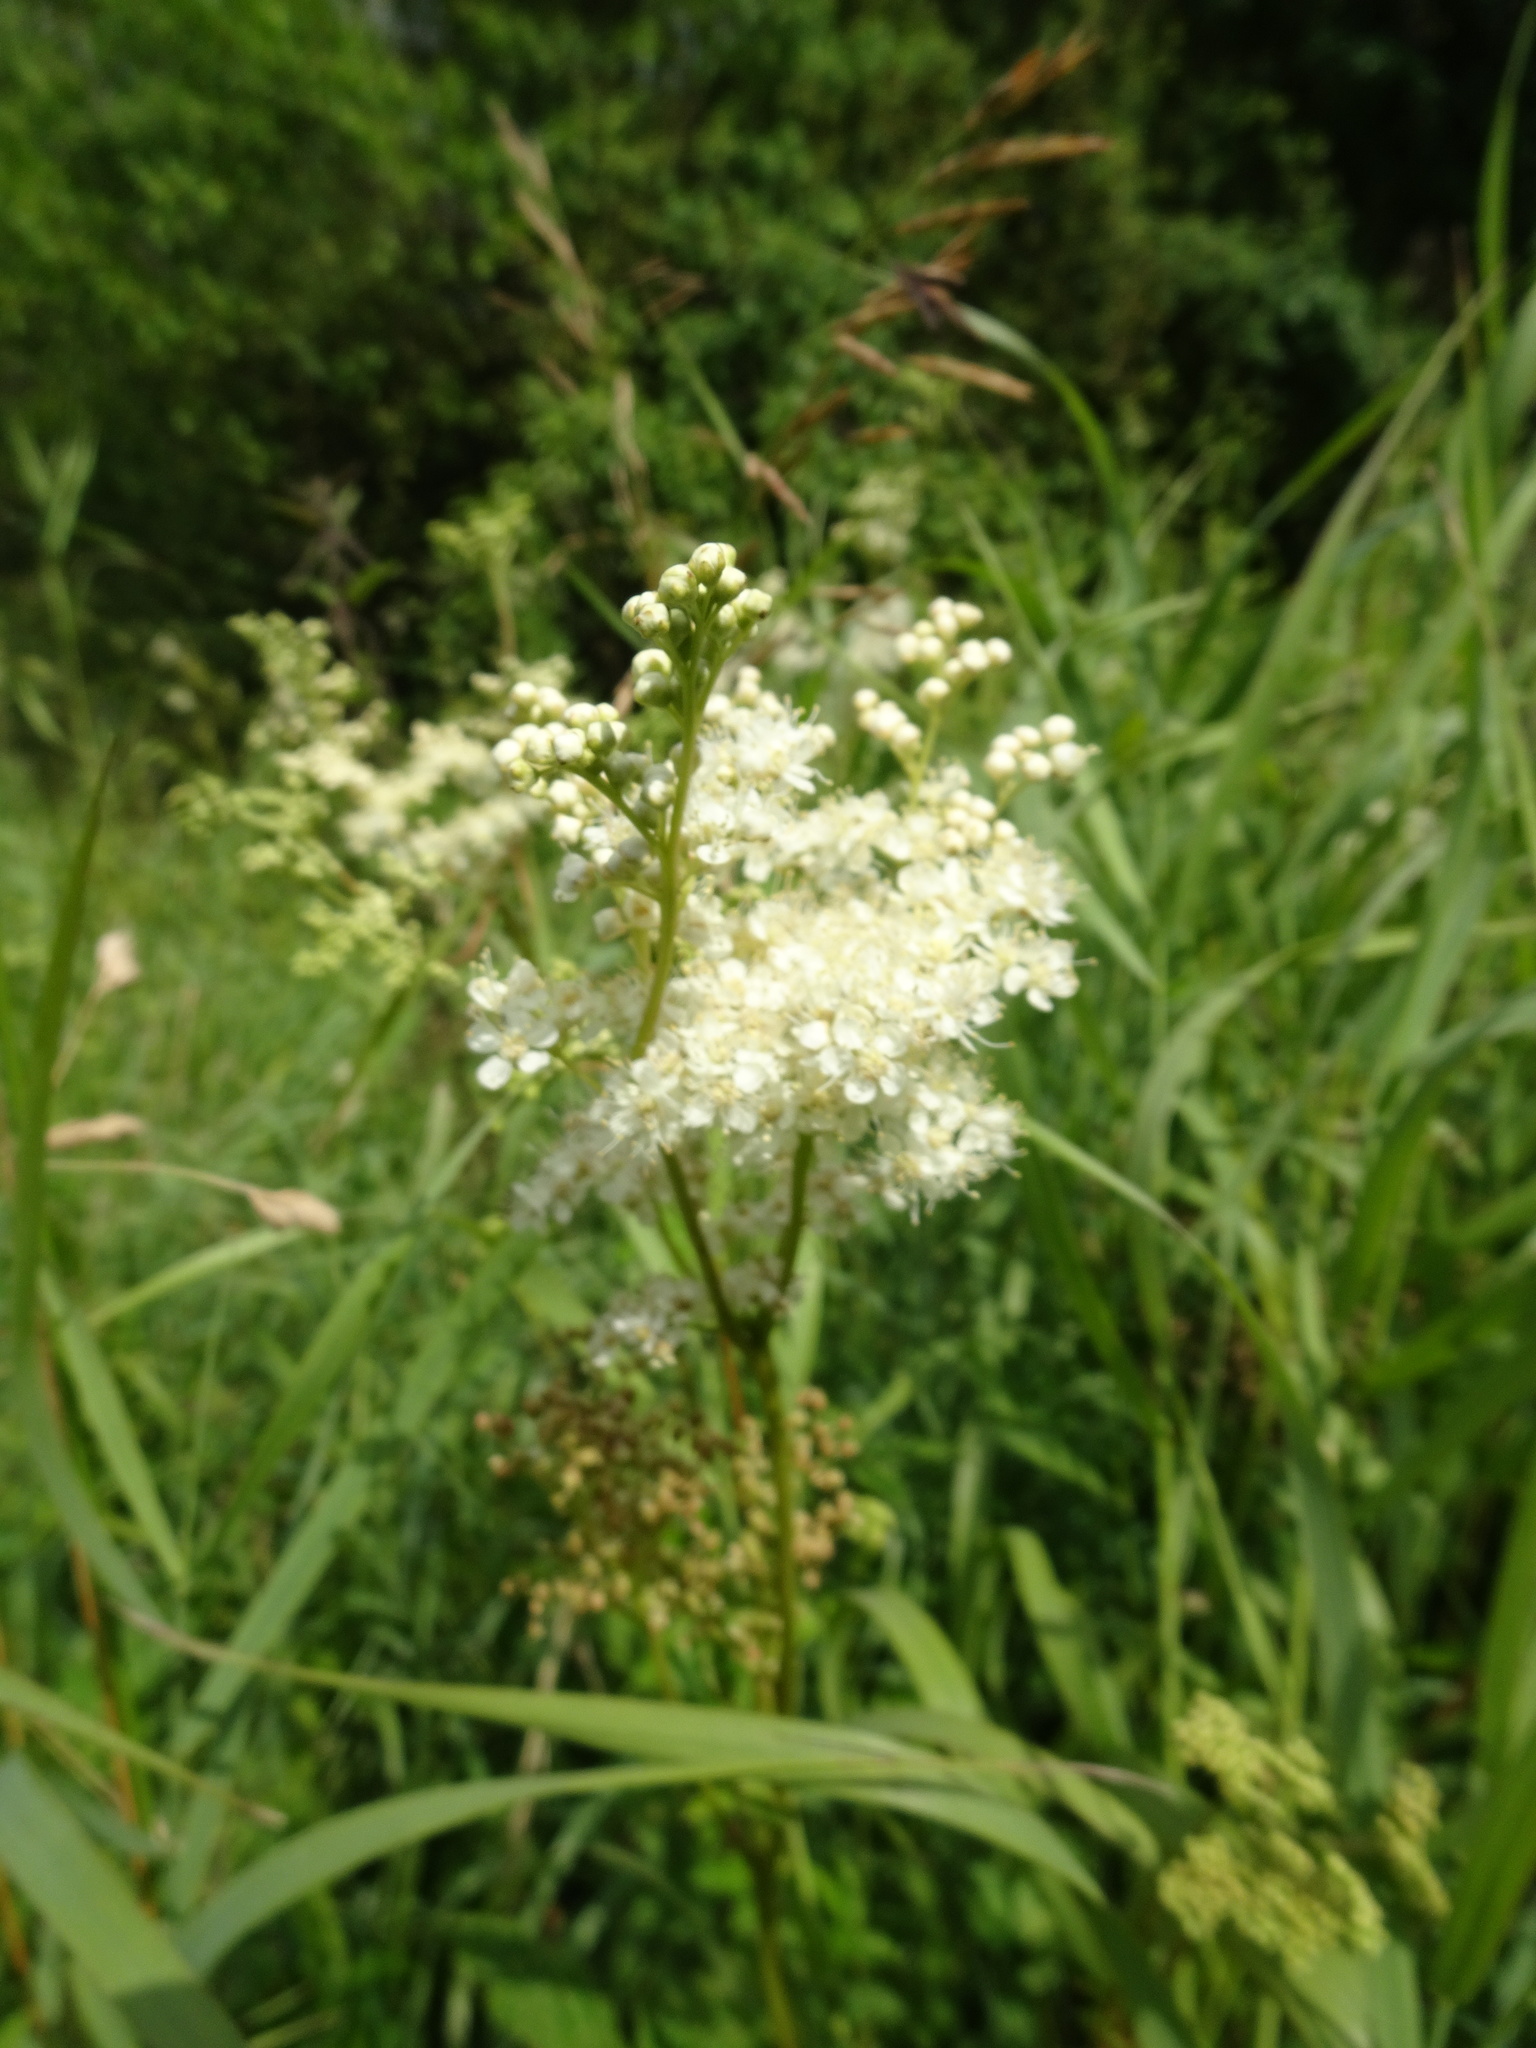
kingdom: Plantae
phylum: Tracheophyta
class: Magnoliopsida
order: Rosales
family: Rosaceae
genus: Filipendula
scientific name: Filipendula ulmaria
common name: Meadowsweet
